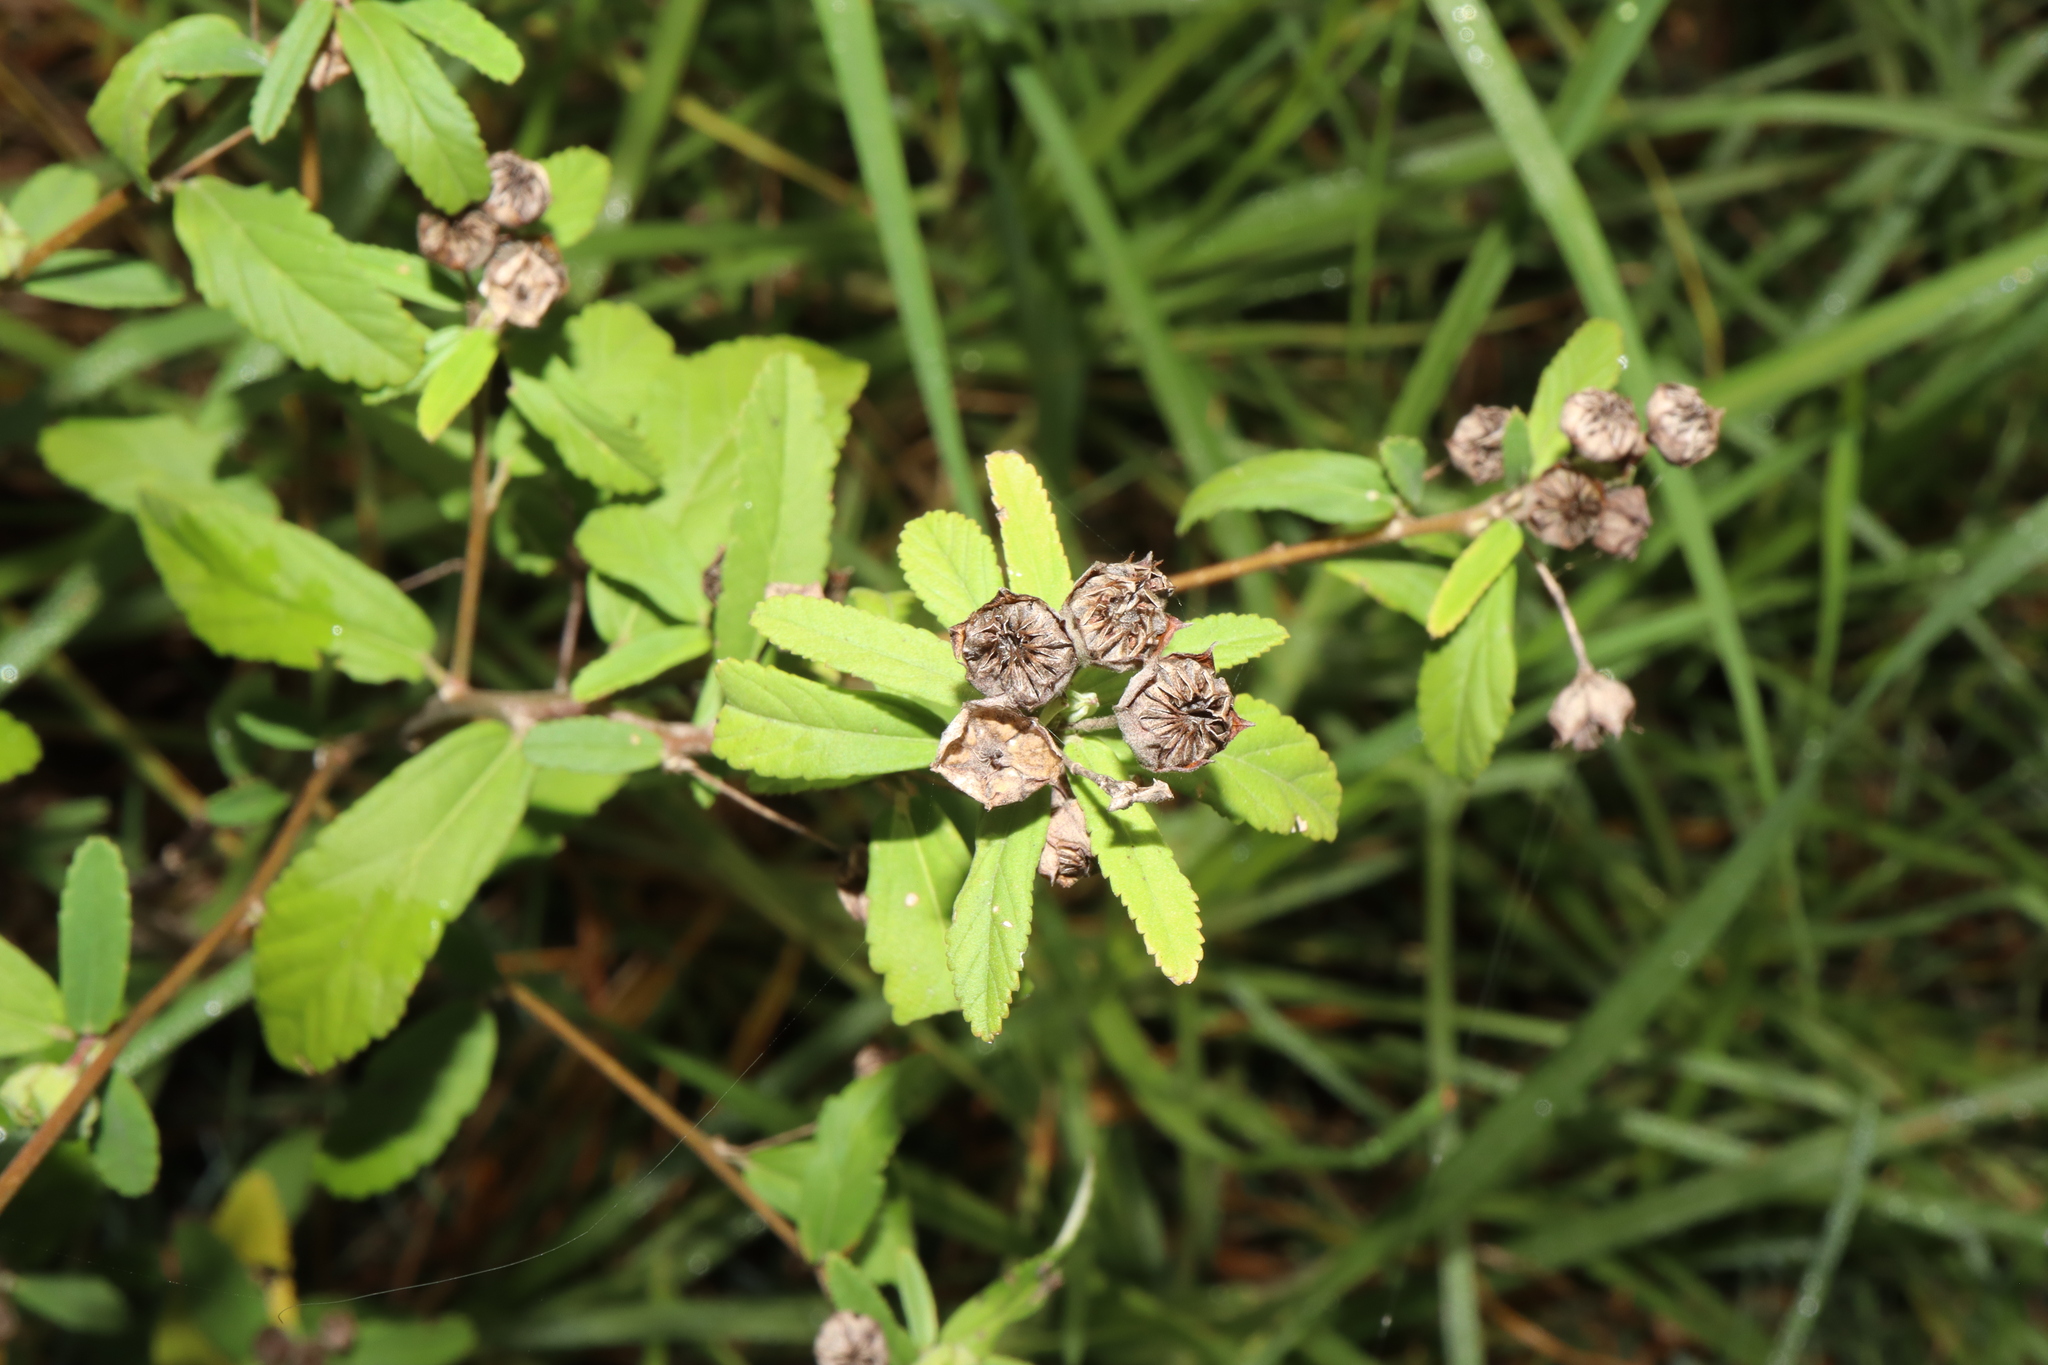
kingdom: Plantae
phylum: Tracheophyta
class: Magnoliopsida
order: Malvales
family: Malvaceae
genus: Sida
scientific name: Sida rhombifolia
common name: Queensland-hemp
